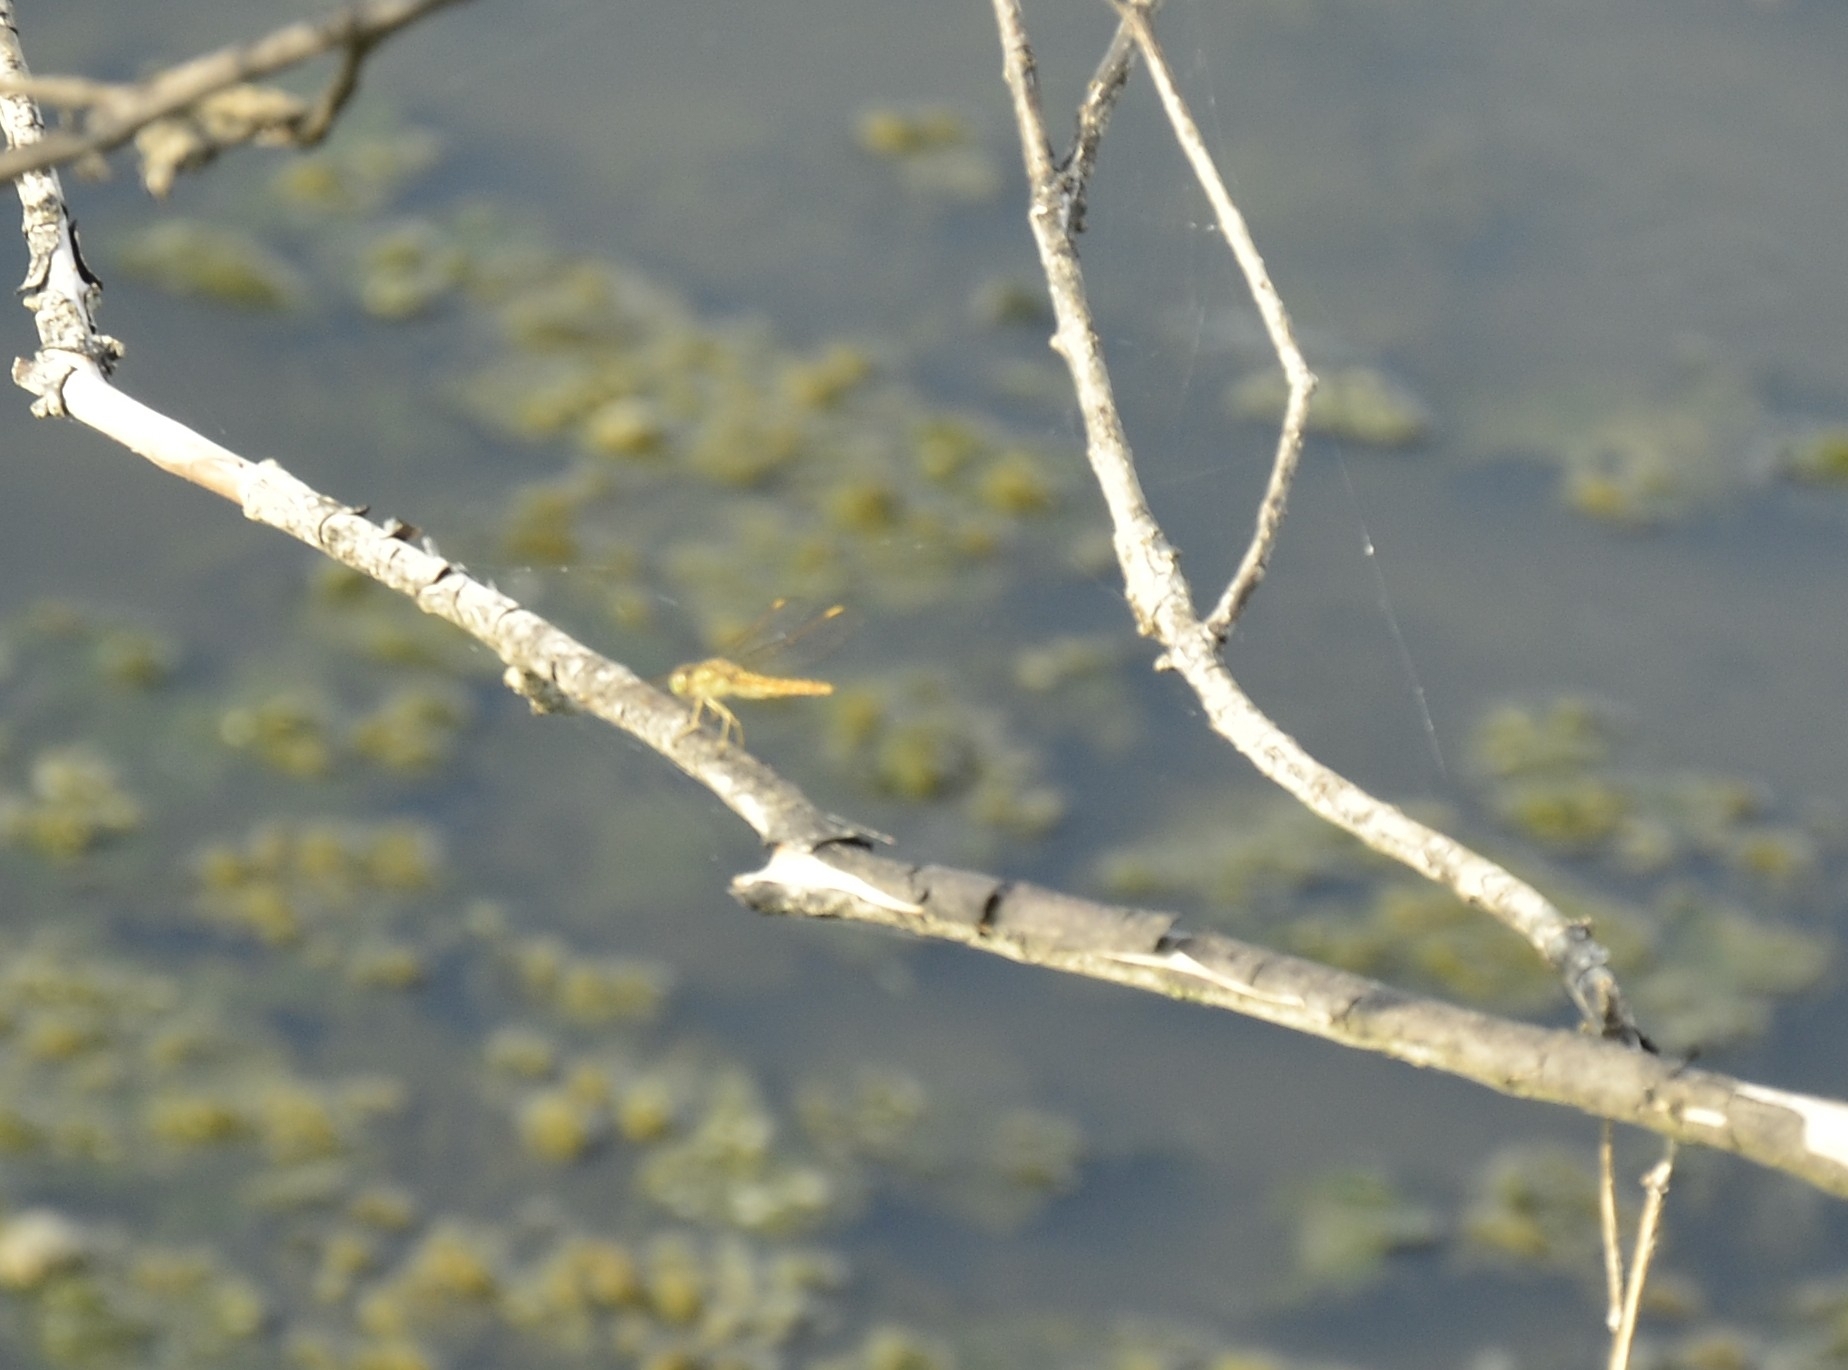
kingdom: Animalia
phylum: Arthropoda
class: Insecta
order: Odonata
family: Libellulidae
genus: Brachythemis
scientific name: Brachythemis contaminata
